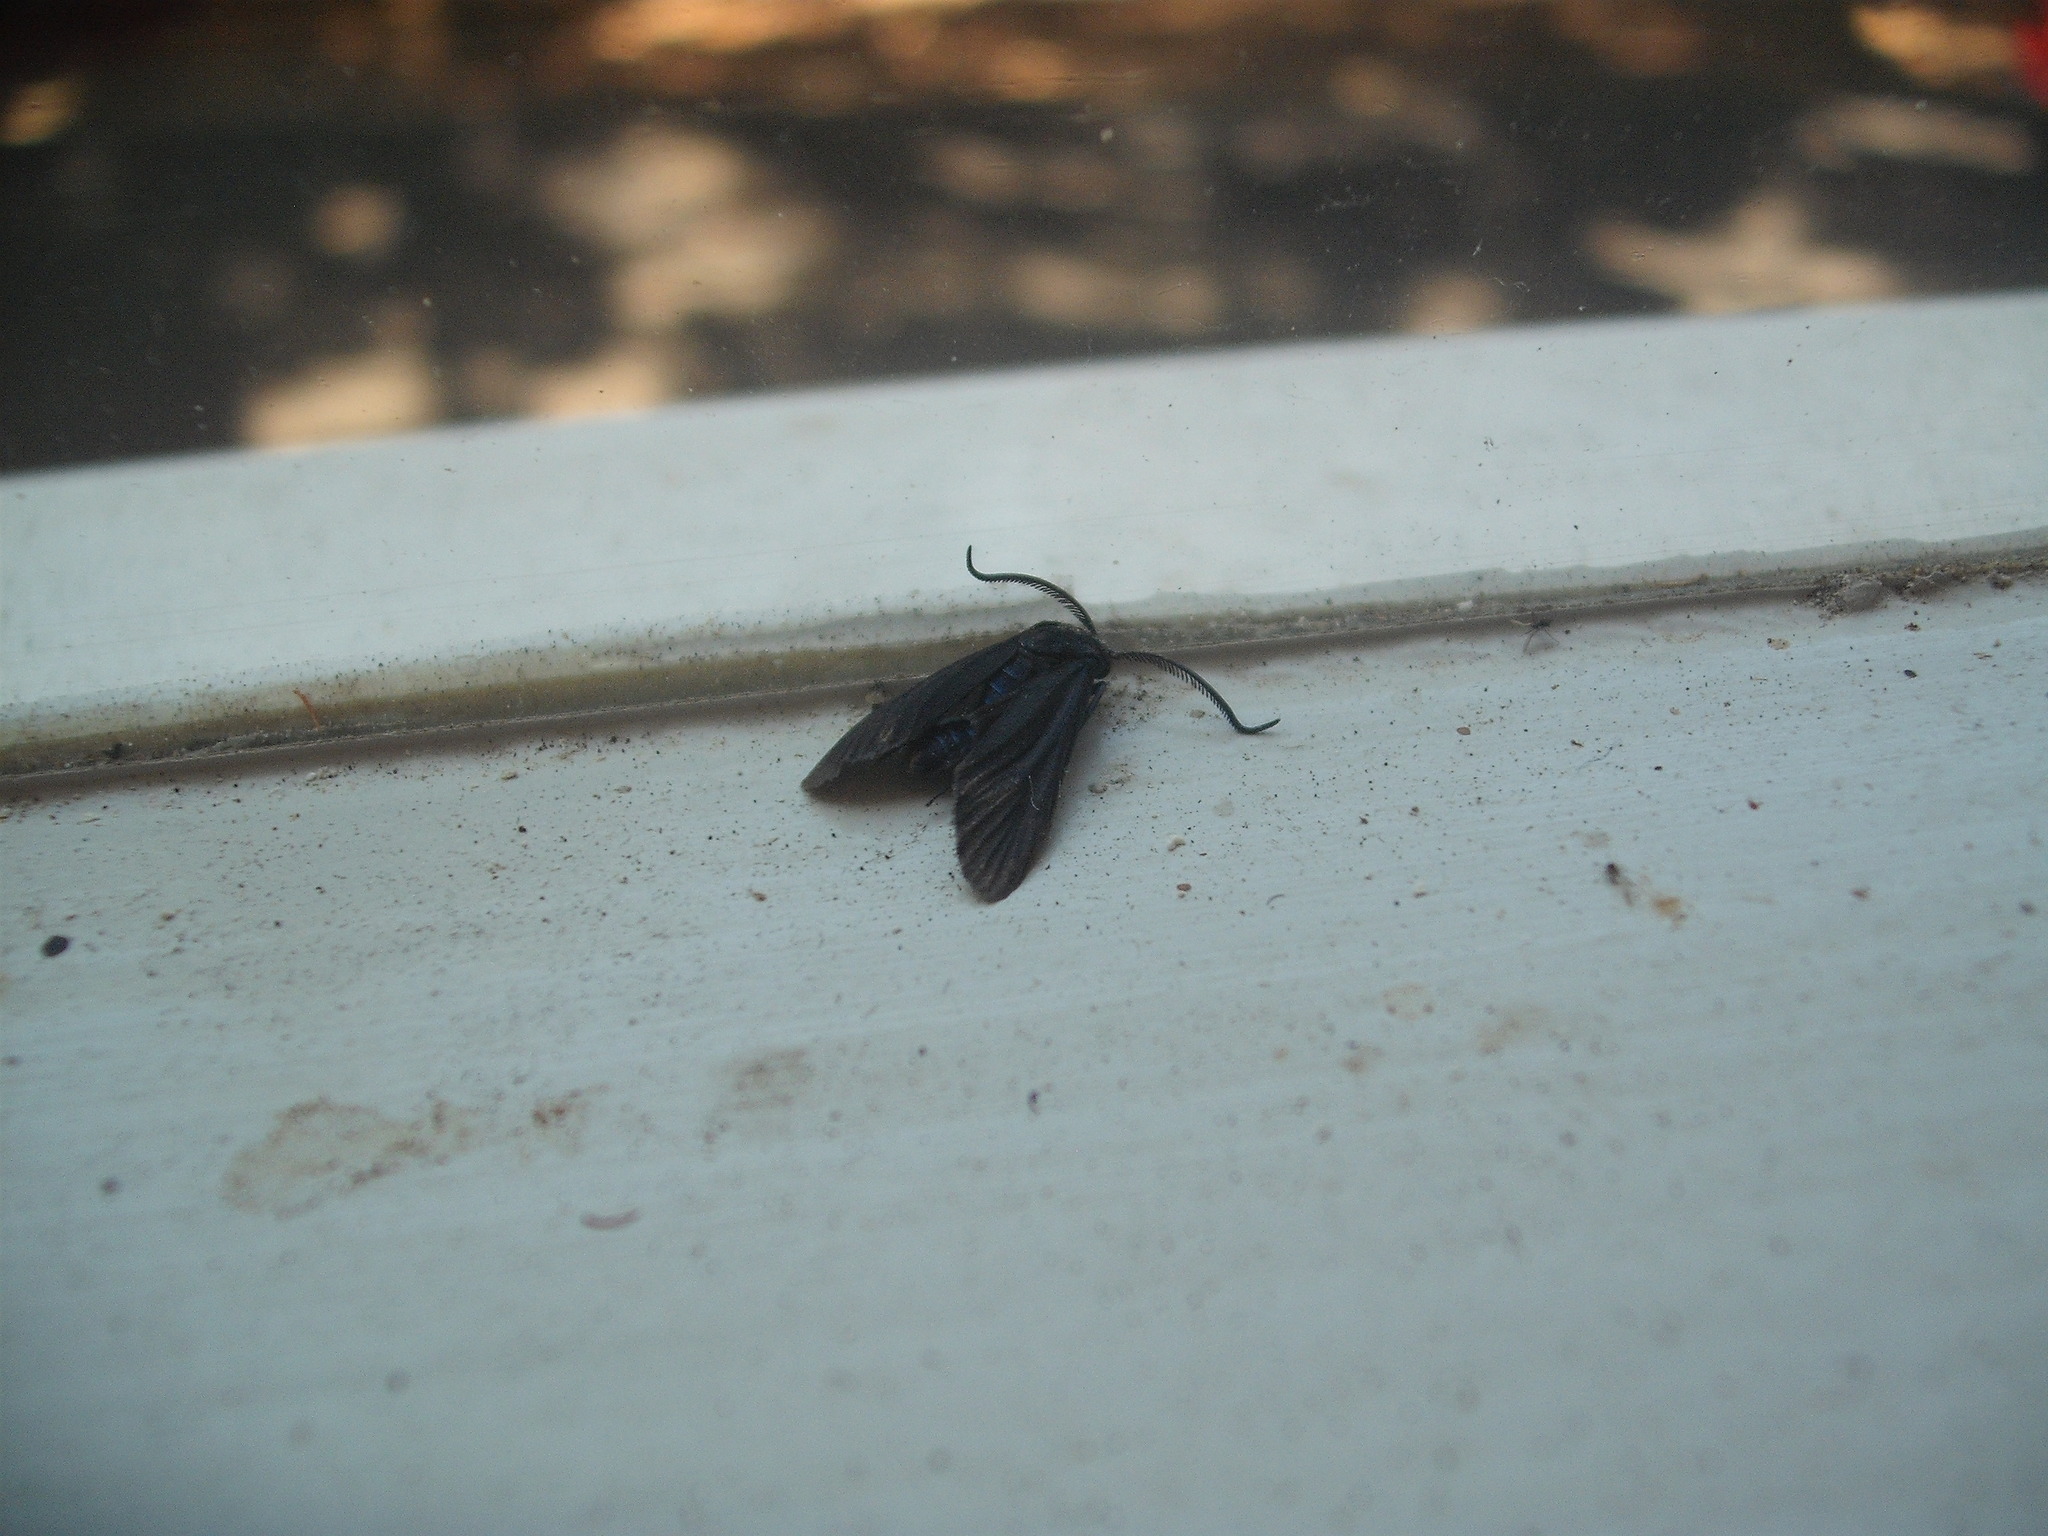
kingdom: Animalia
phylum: Arthropoda
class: Insecta
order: Lepidoptera
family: Zygaenidae
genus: Artona
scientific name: Artona martini
